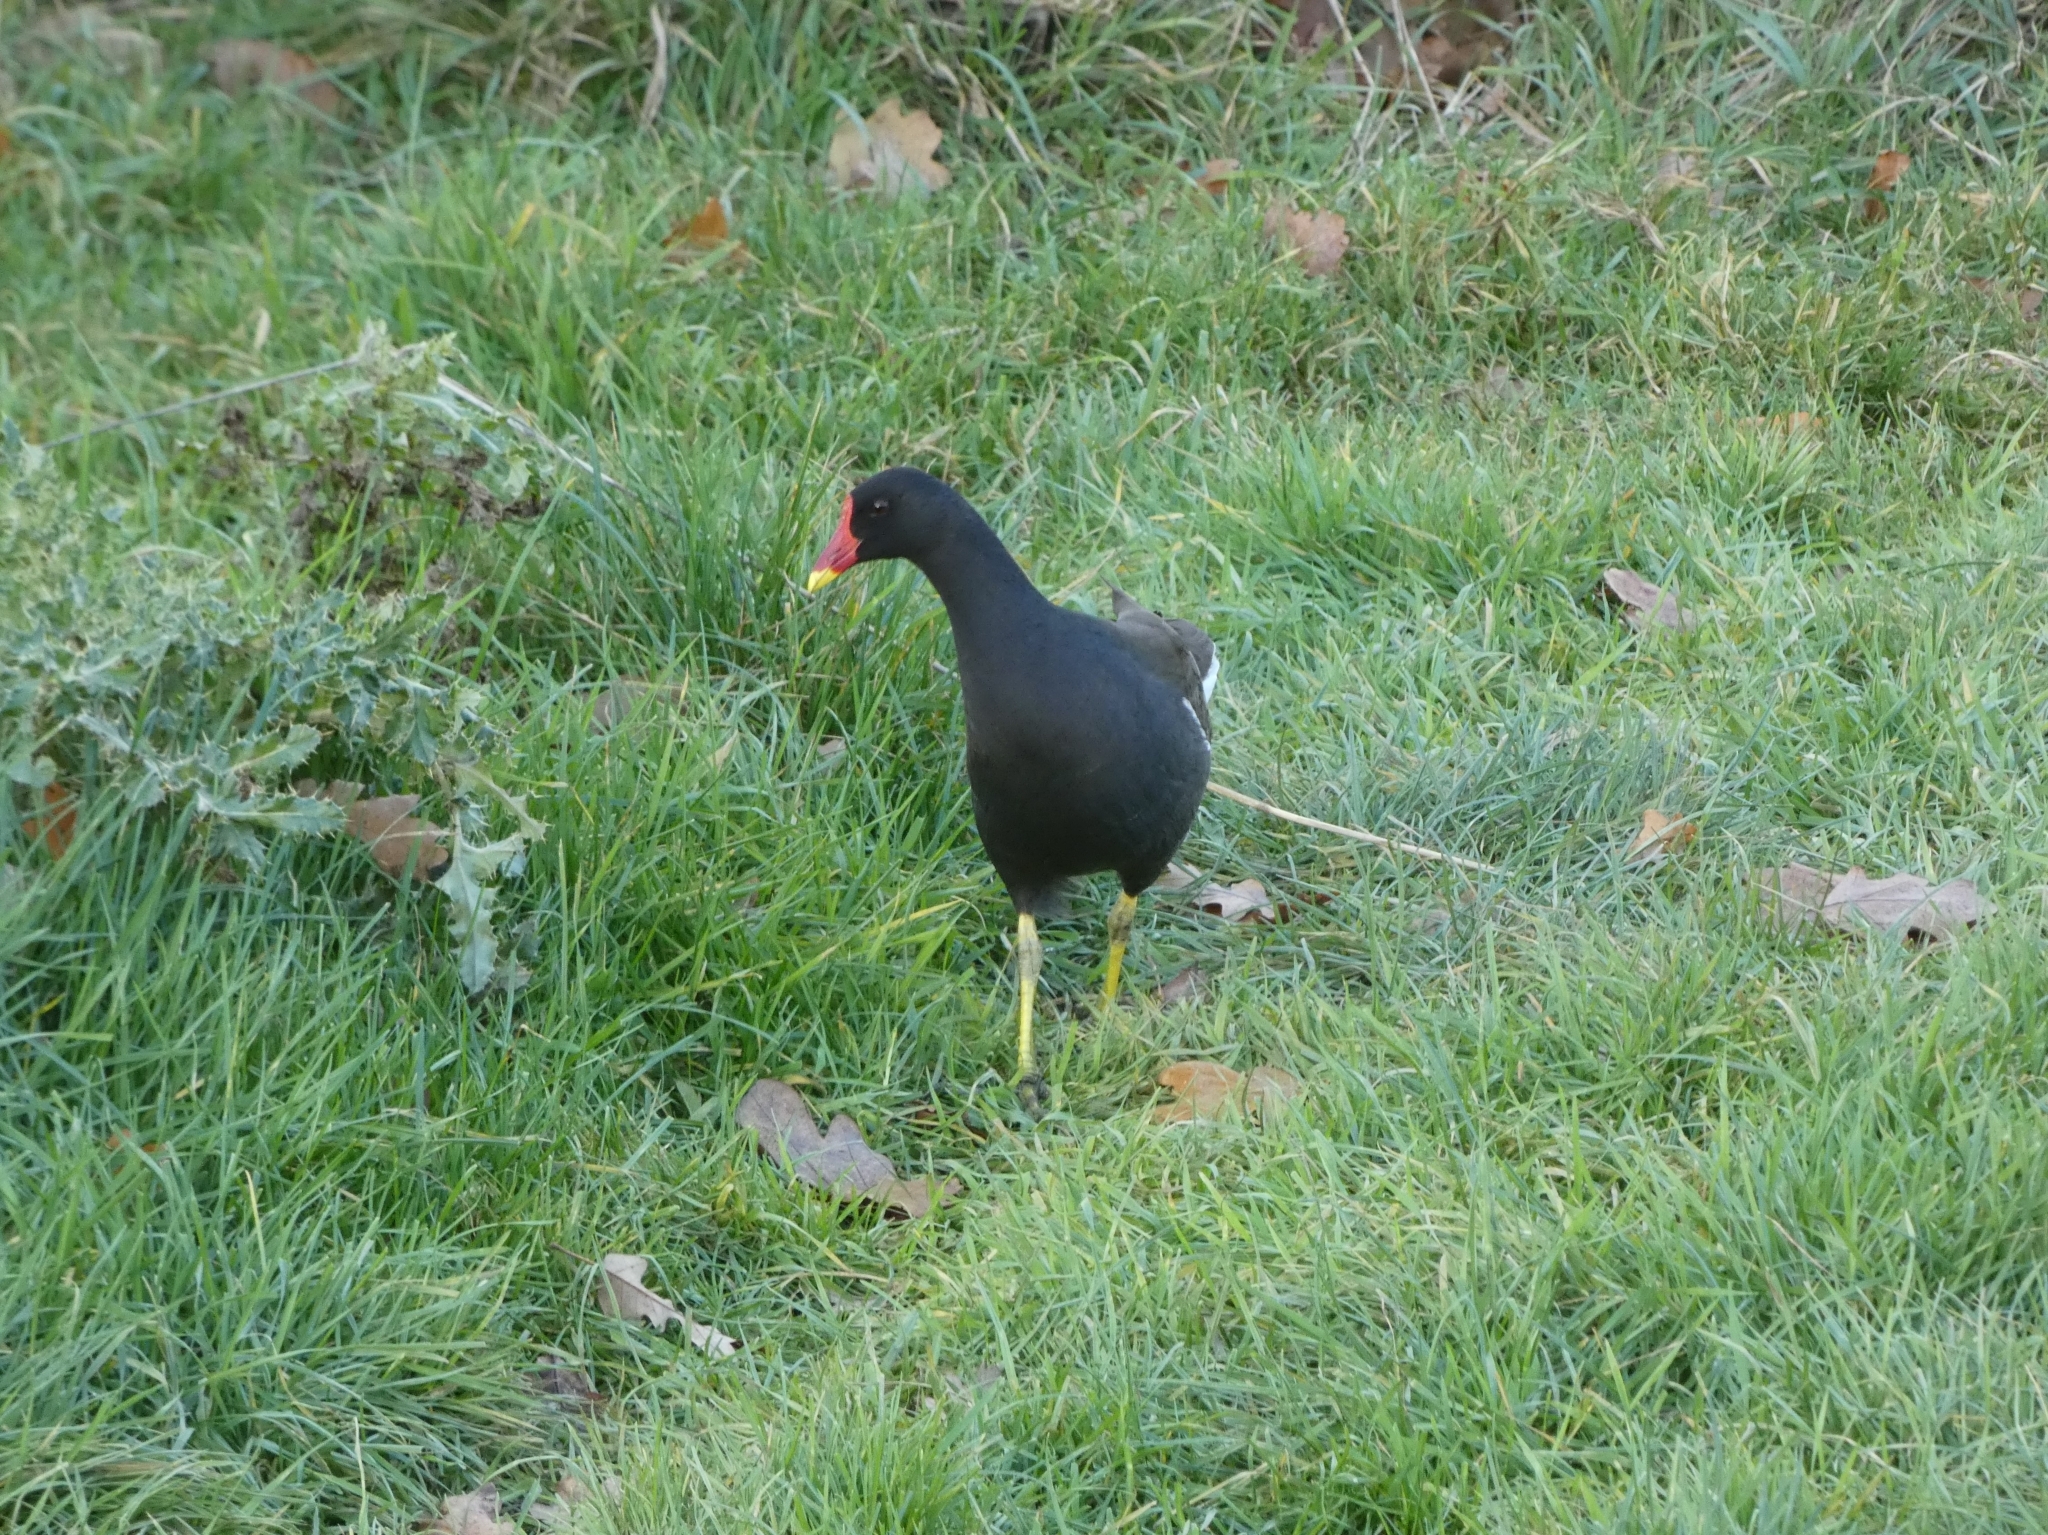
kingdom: Animalia
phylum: Chordata
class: Aves
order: Gruiformes
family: Rallidae
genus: Gallinula
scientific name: Gallinula chloropus
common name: Common moorhen
